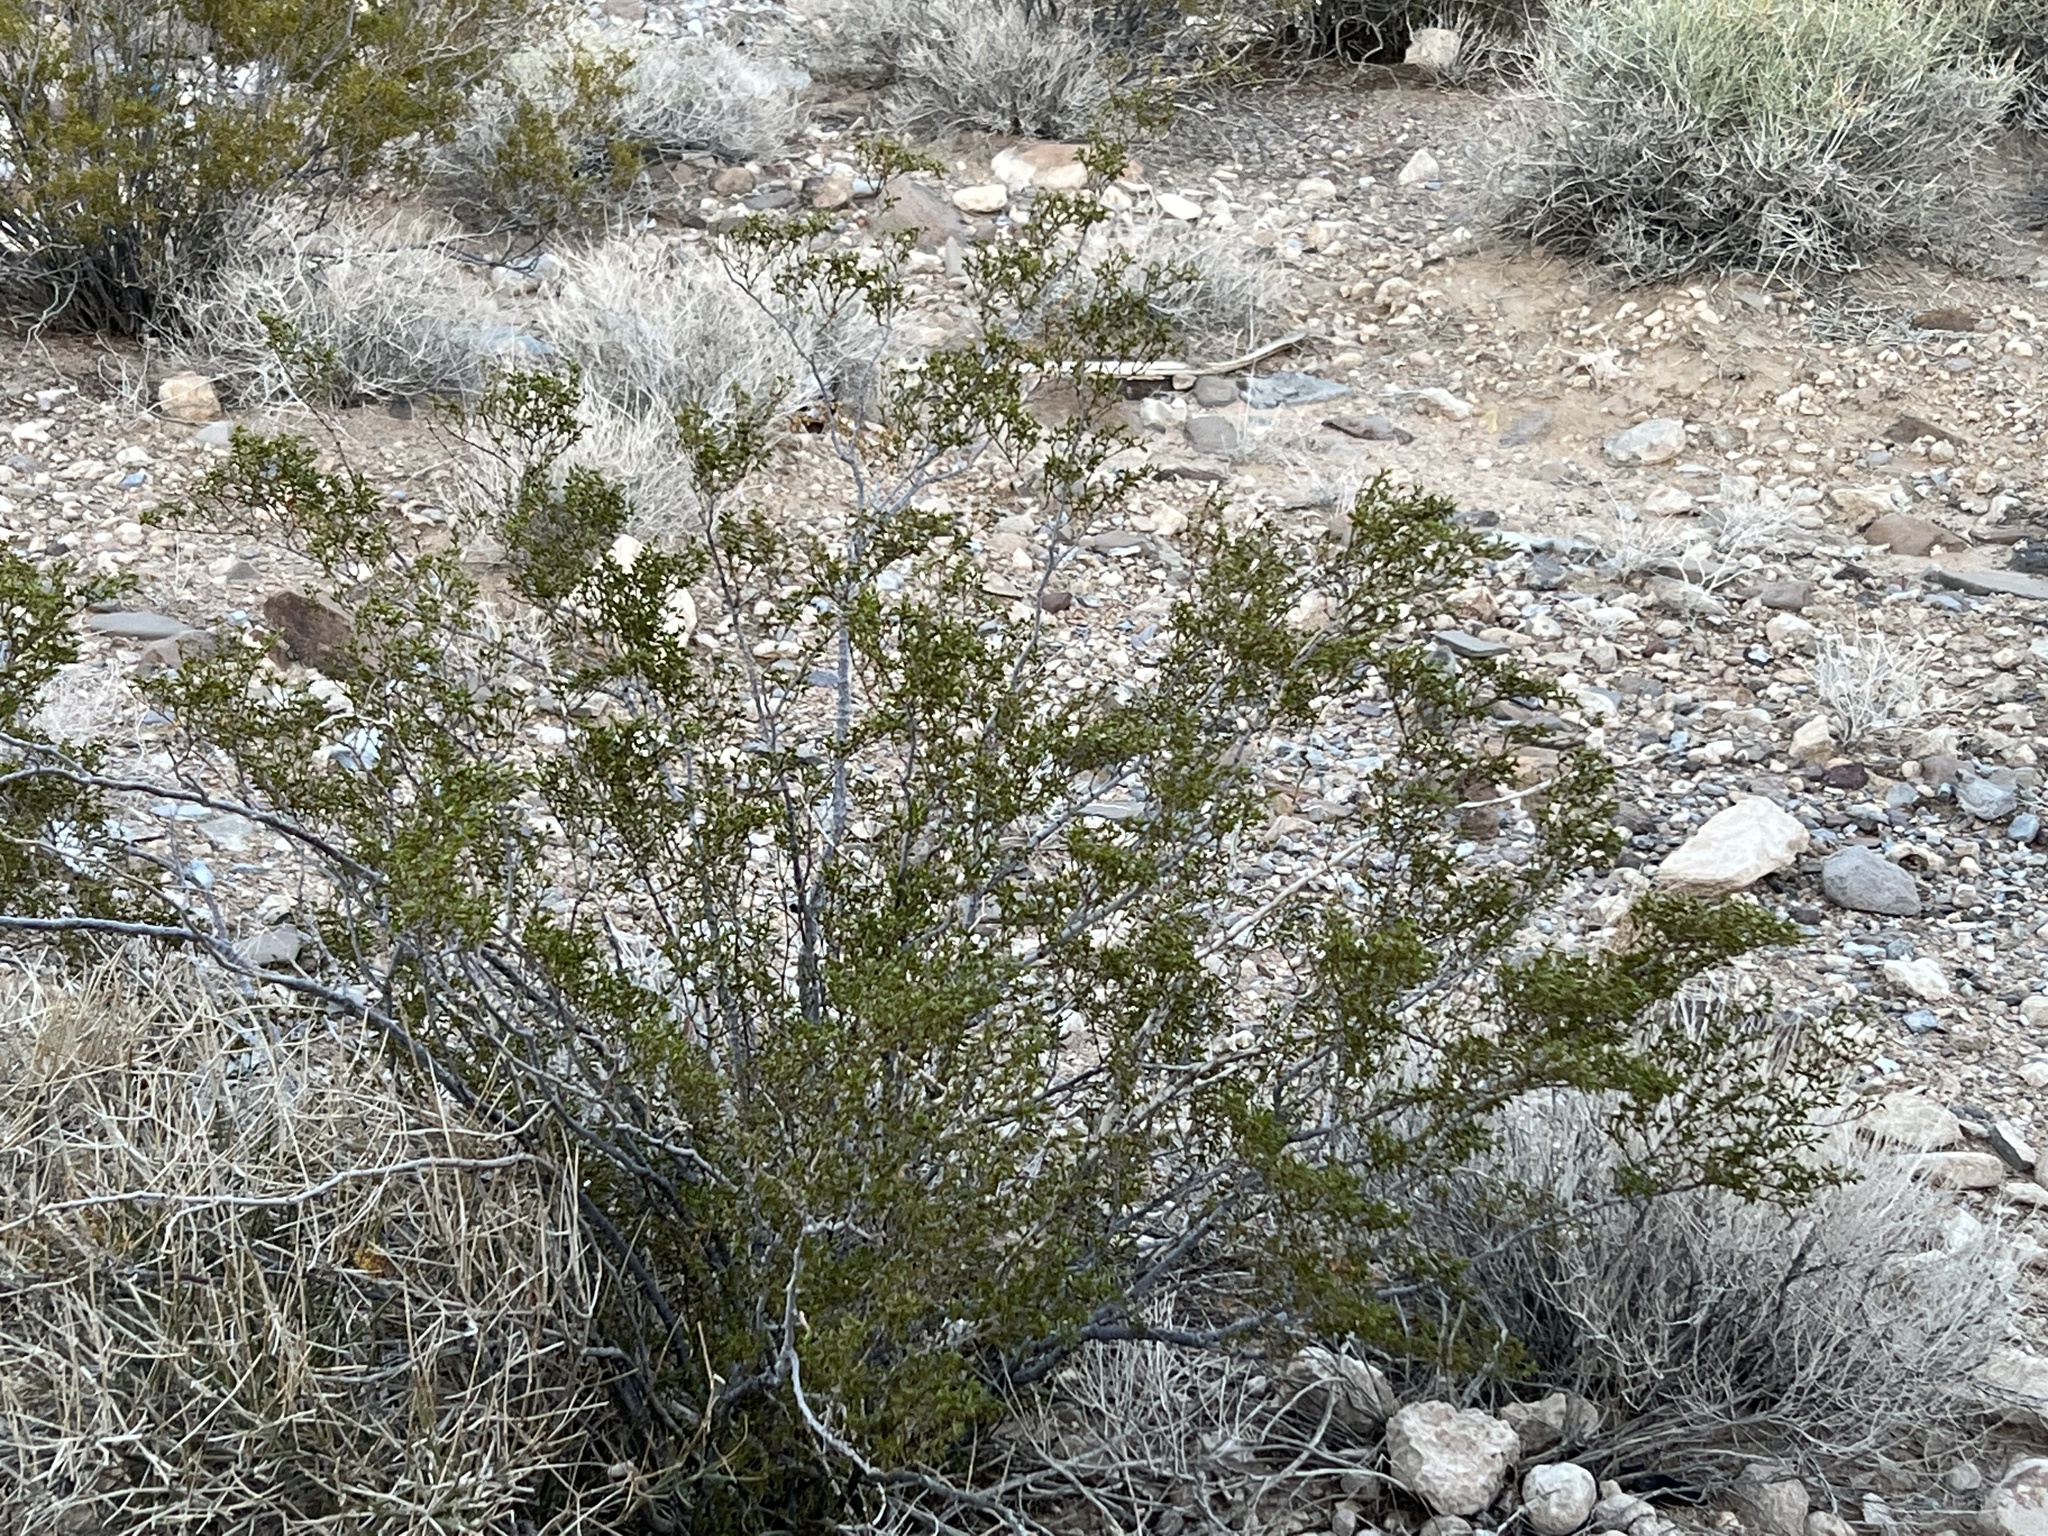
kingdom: Plantae
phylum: Tracheophyta
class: Magnoliopsida
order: Zygophyllales
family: Zygophyllaceae
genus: Larrea
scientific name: Larrea tridentata
